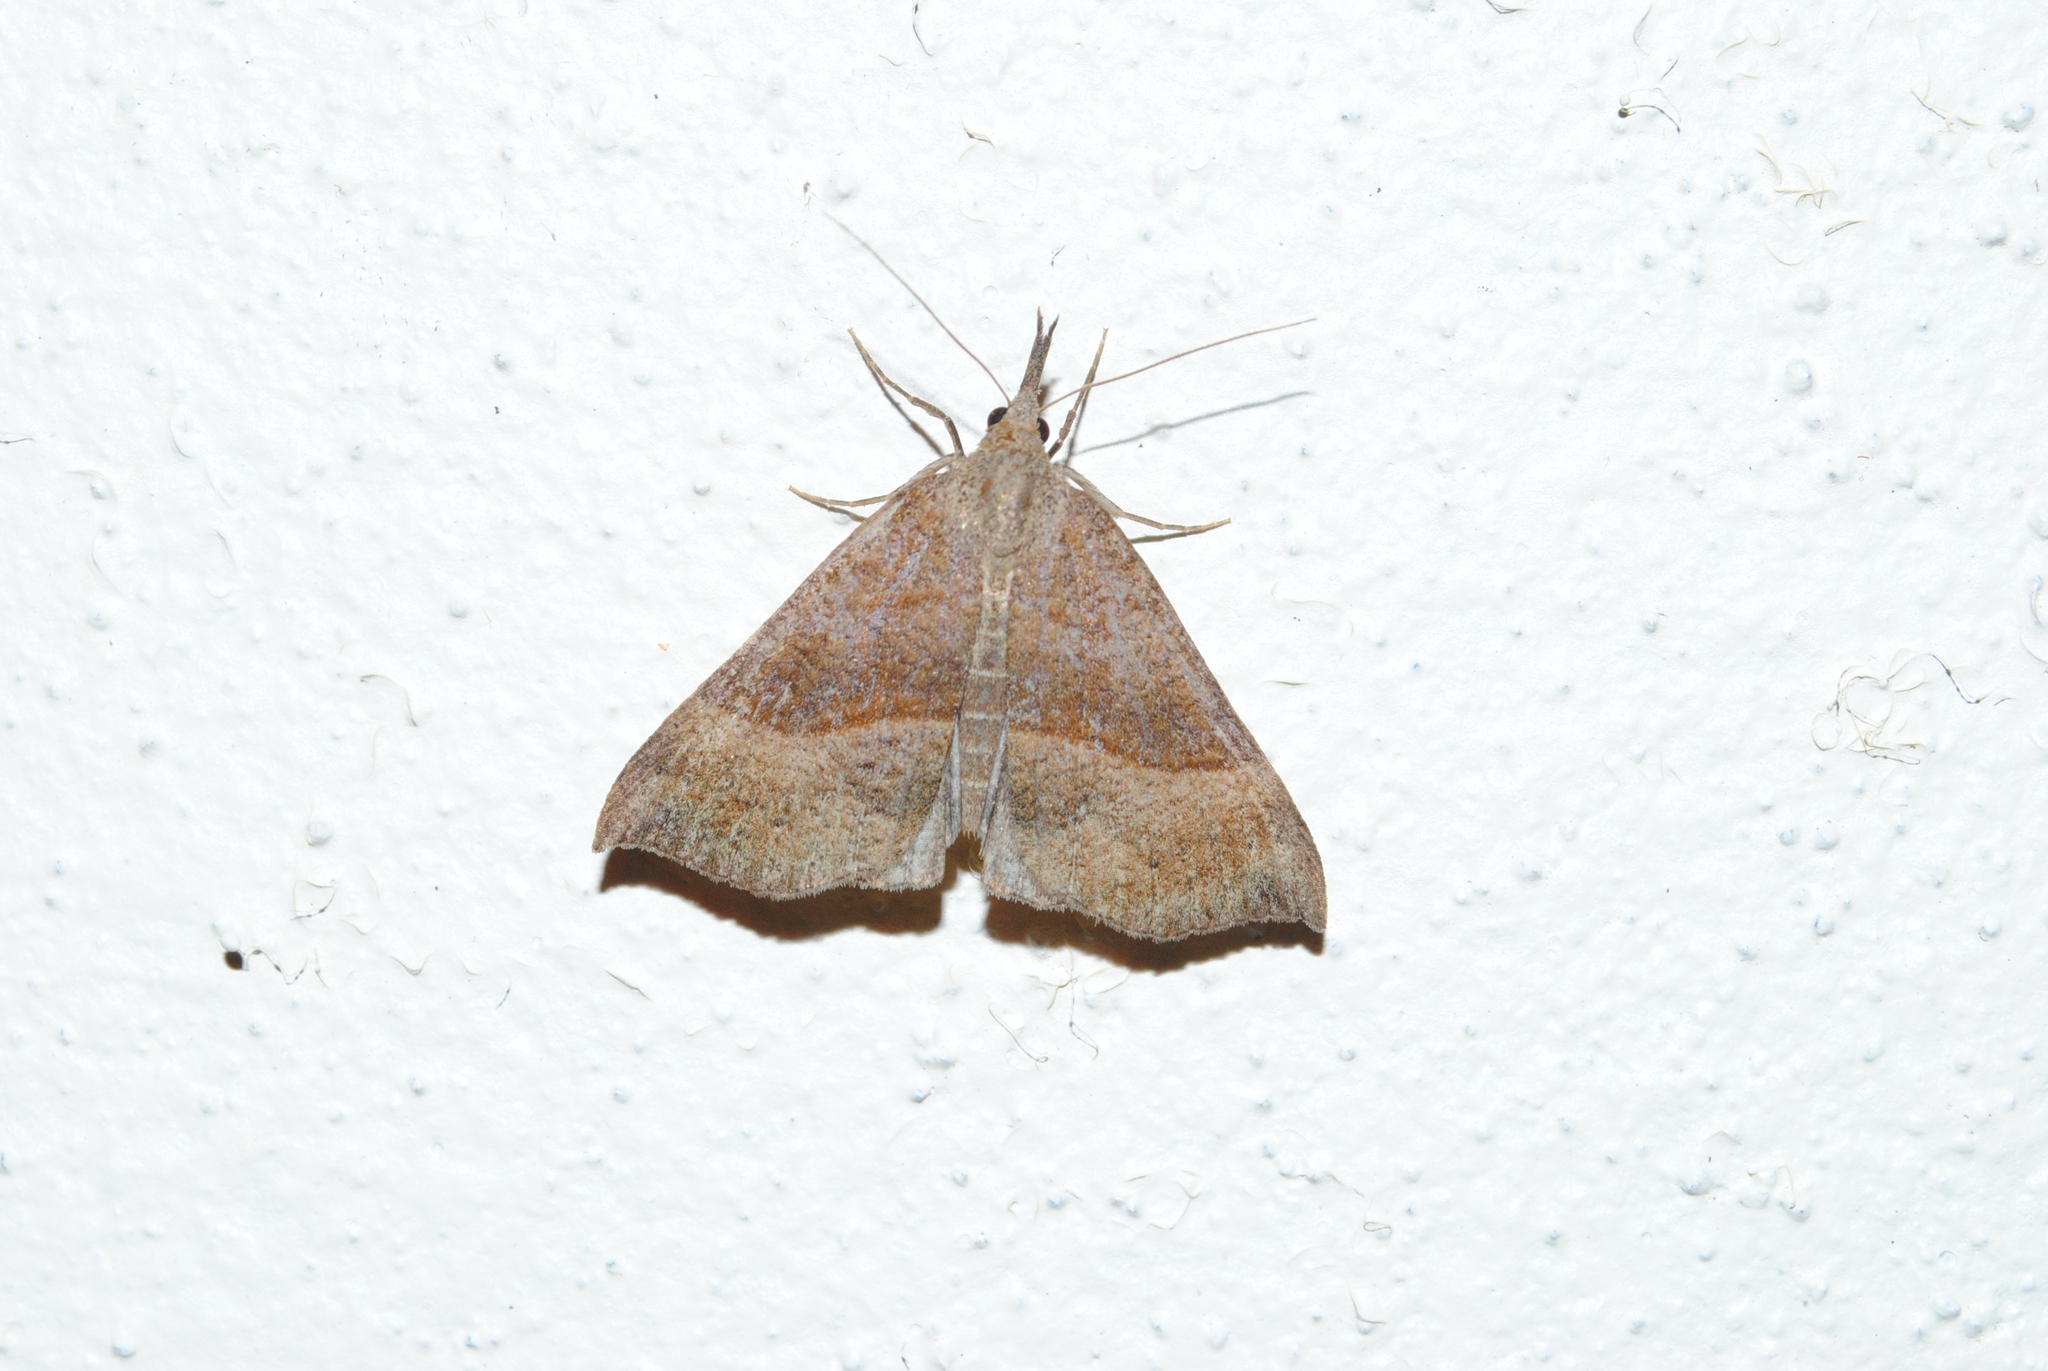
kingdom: Animalia
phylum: Arthropoda
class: Insecta
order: Lepidoptera
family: Erebidae
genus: Hypena
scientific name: Hypena proboscidalis
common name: Snout
